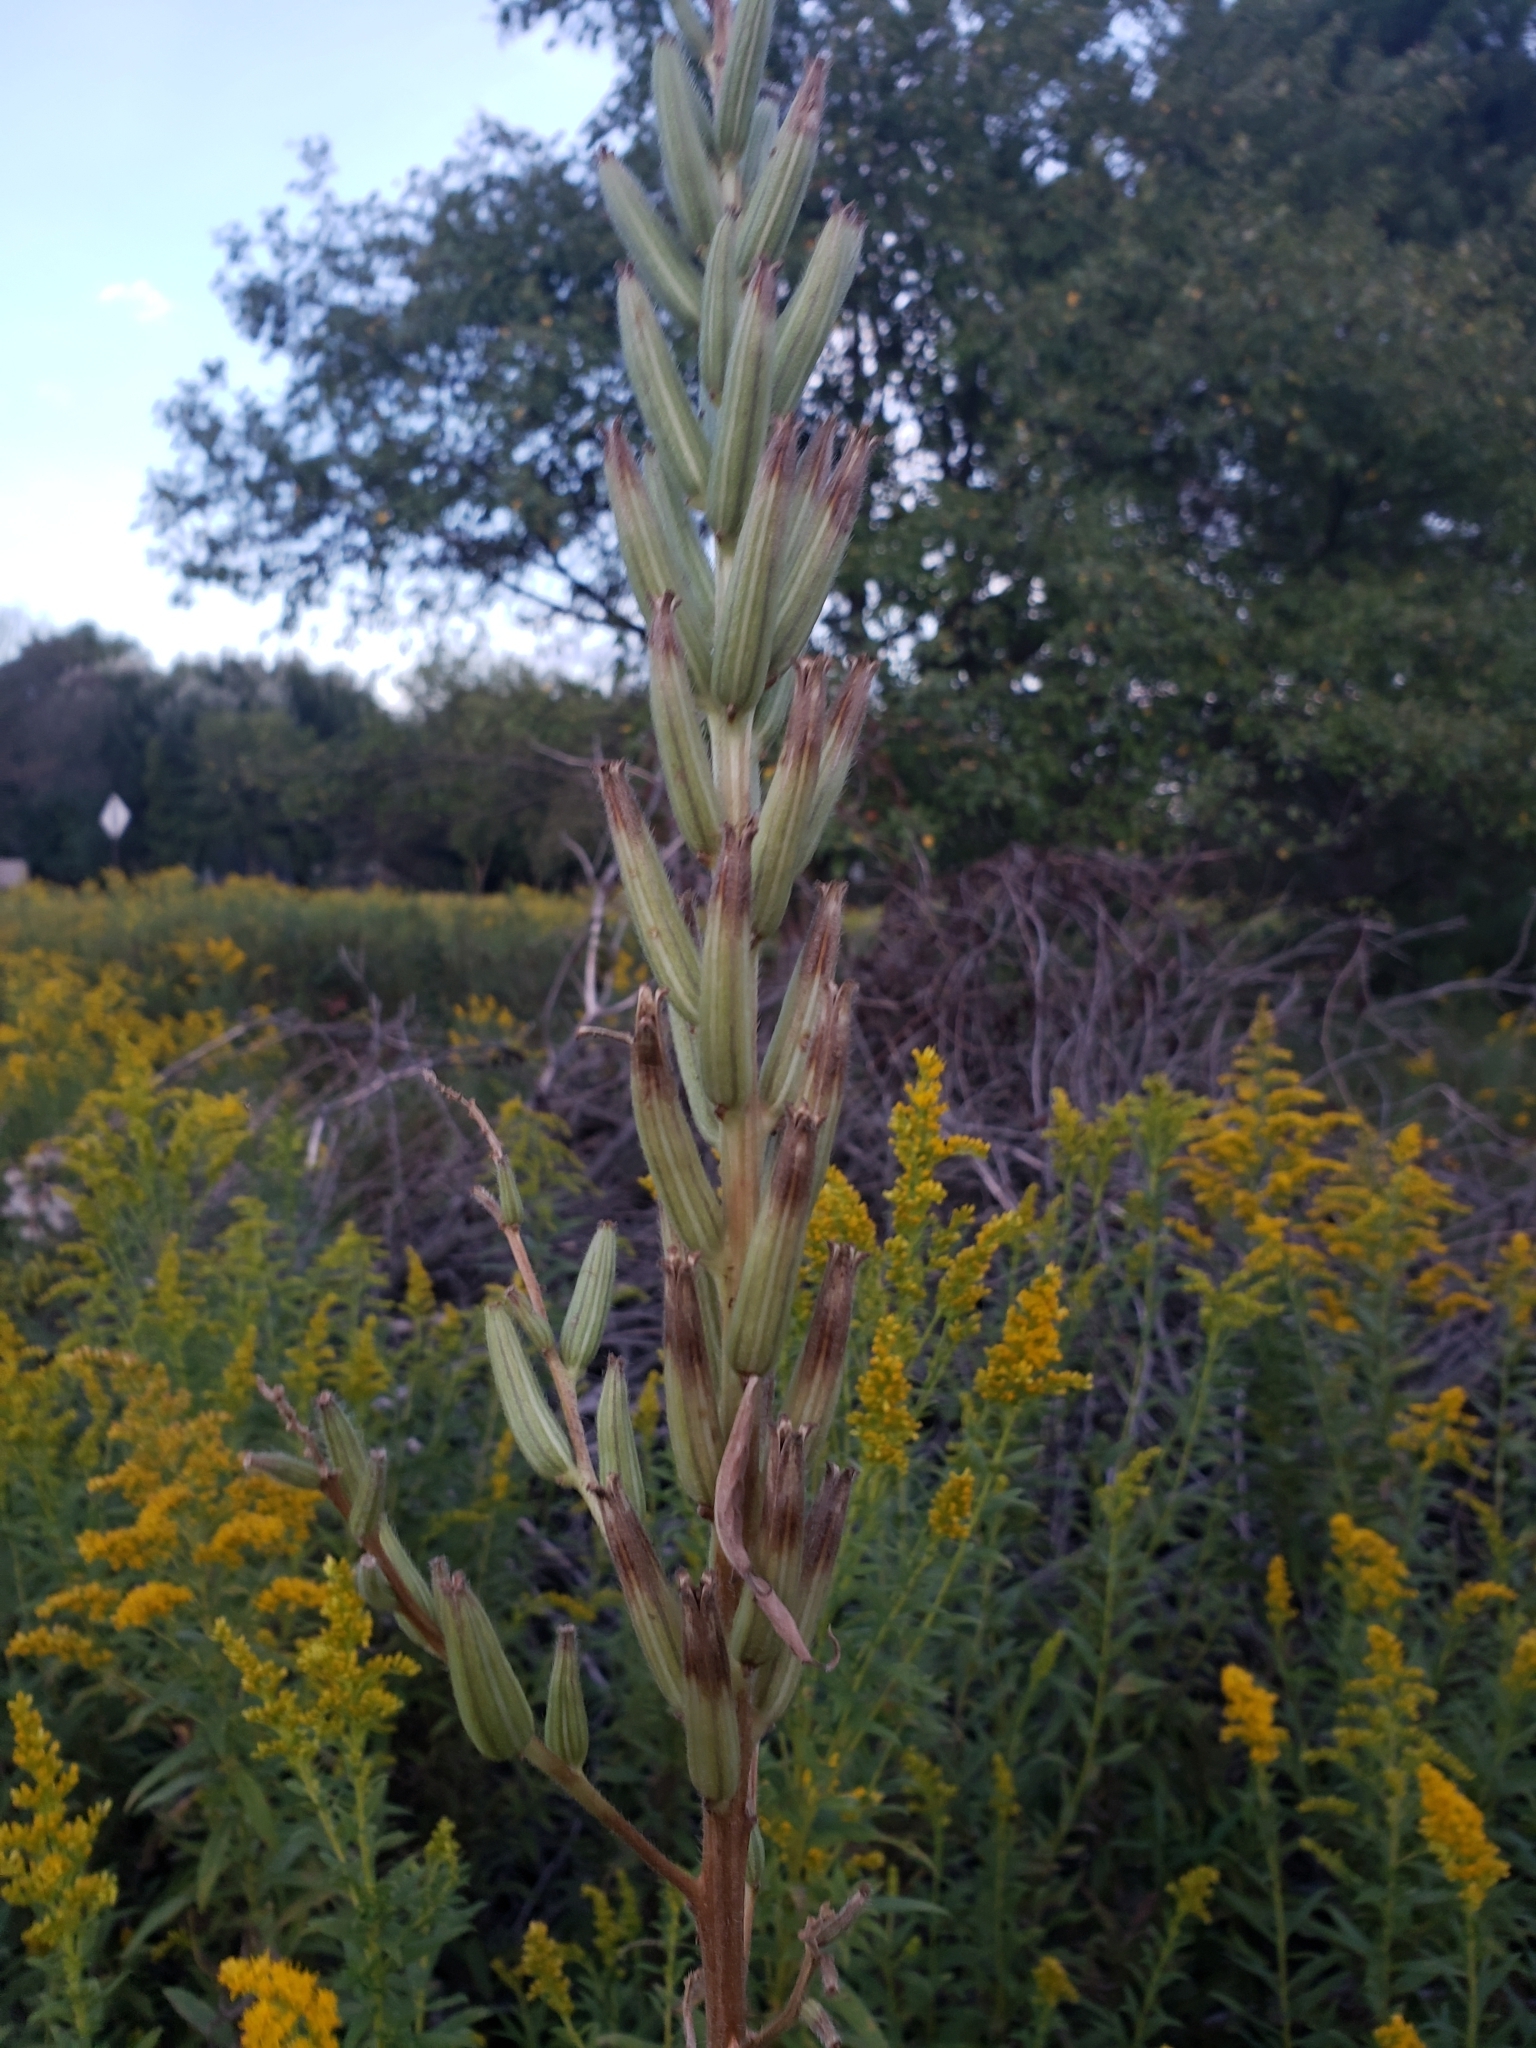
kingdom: Plantae
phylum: Tracheophyta
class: Magnoliopsida
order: Myrtales
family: Onagraceae
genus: Oenothera
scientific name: Oenothera biennis
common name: Common evening-primrose
